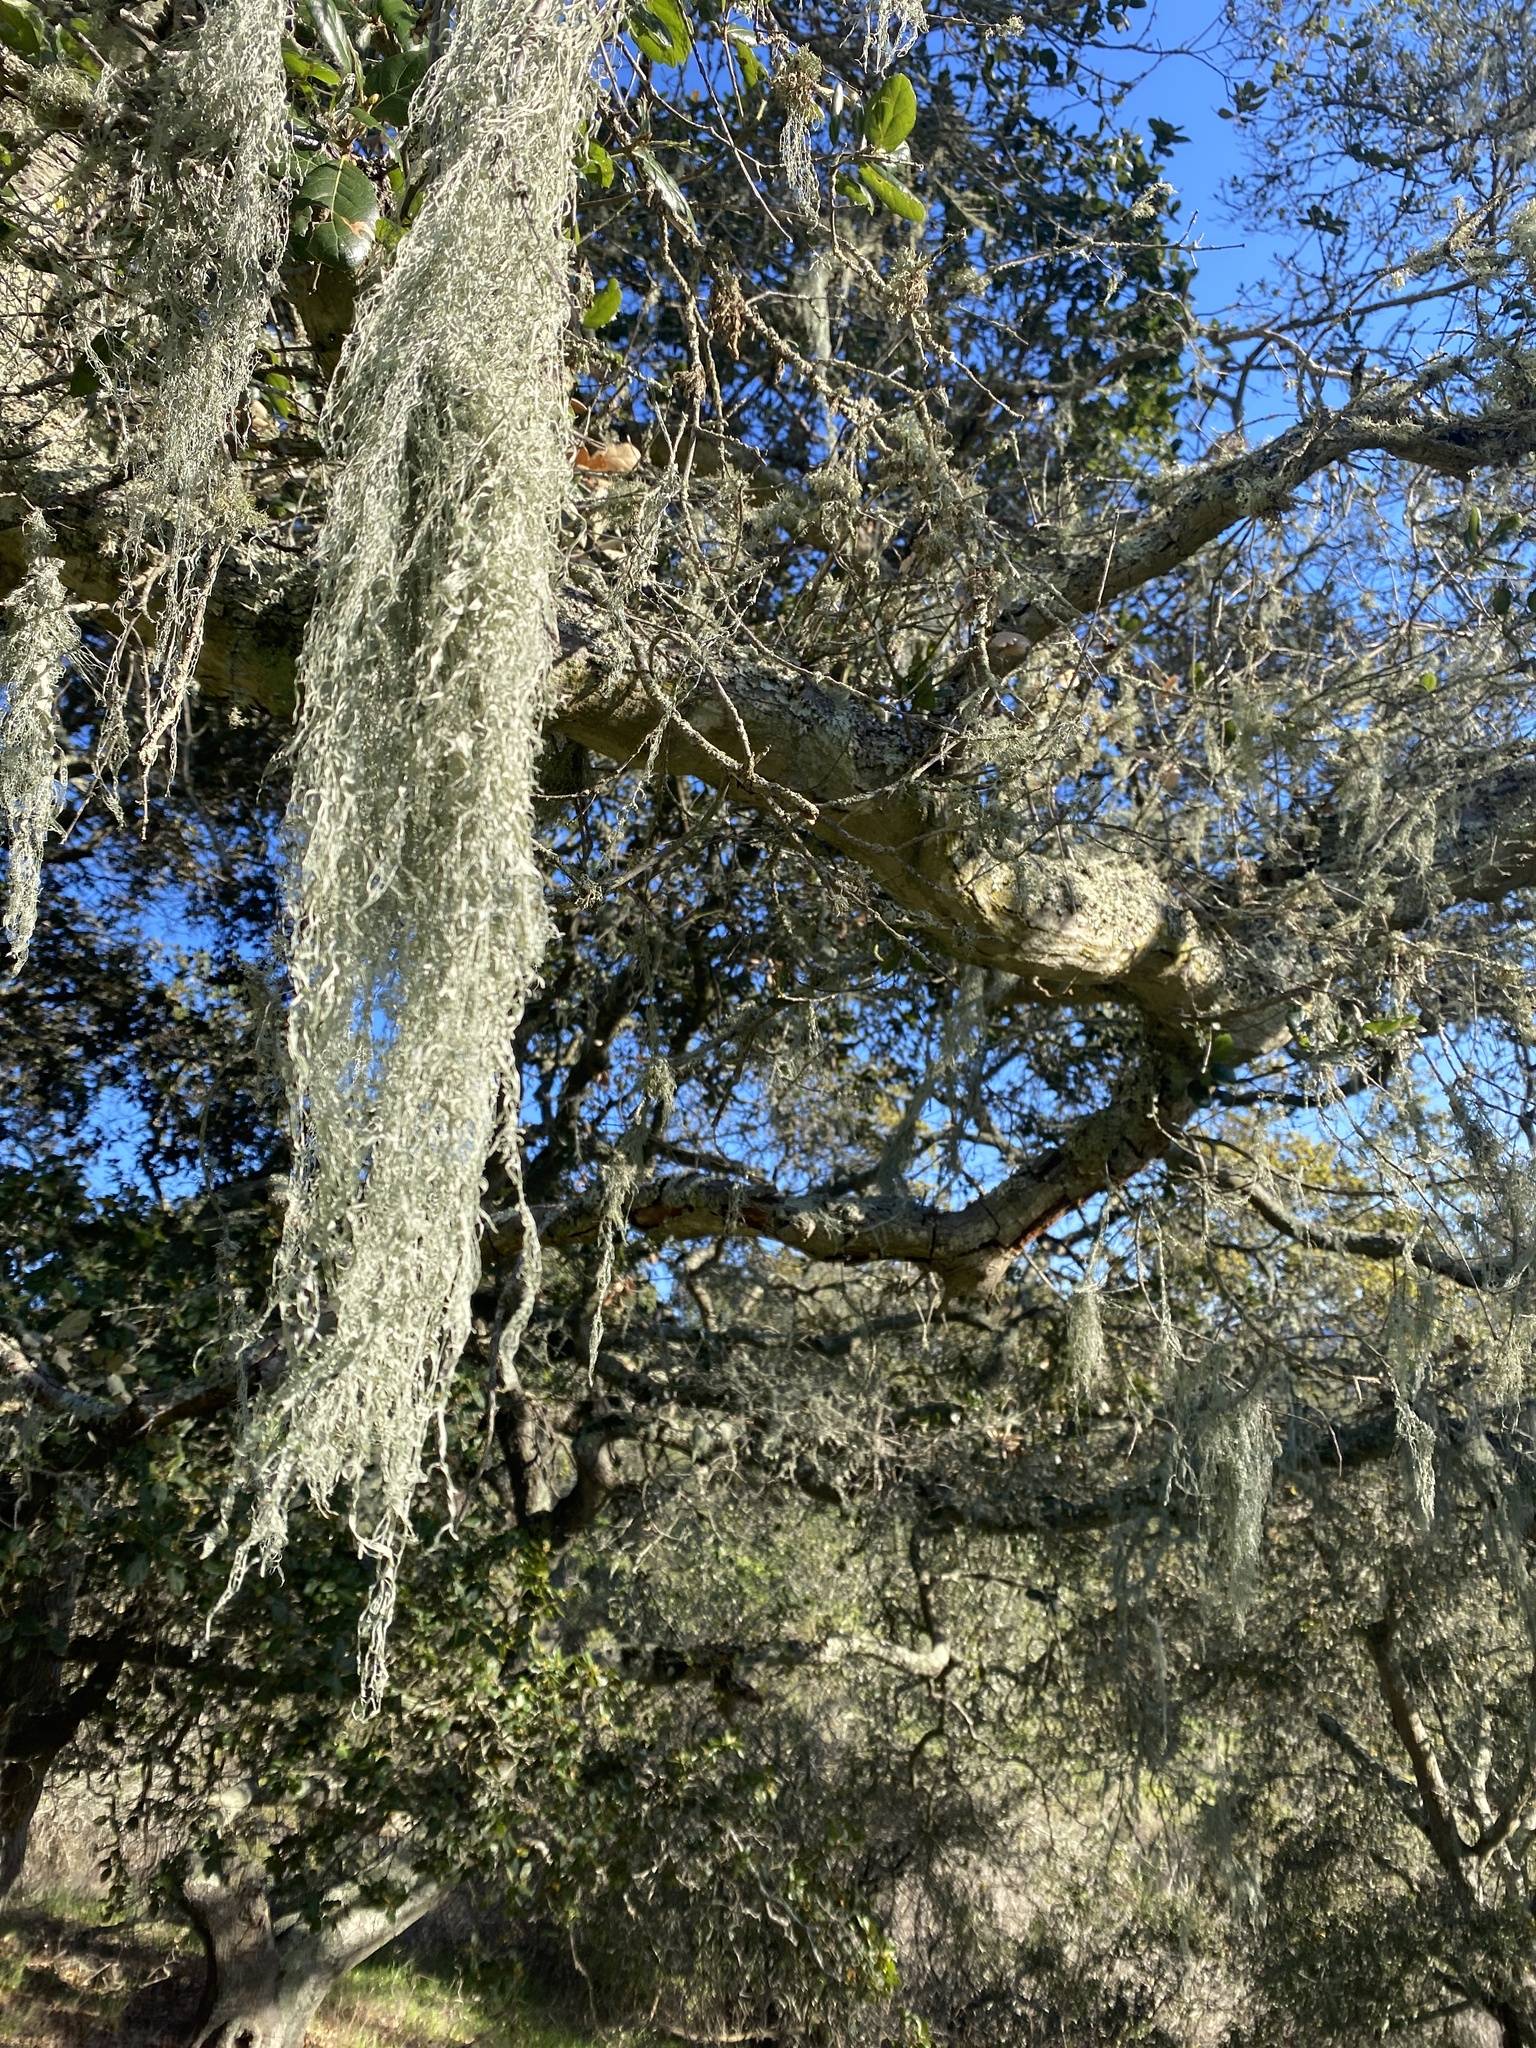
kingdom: Fungi
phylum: Ascomycota
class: Lecanoromycetes
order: Lecanorales
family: Ramalinaceae
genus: Ramalina
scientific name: Ramalina menziesii
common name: Lace lichen
